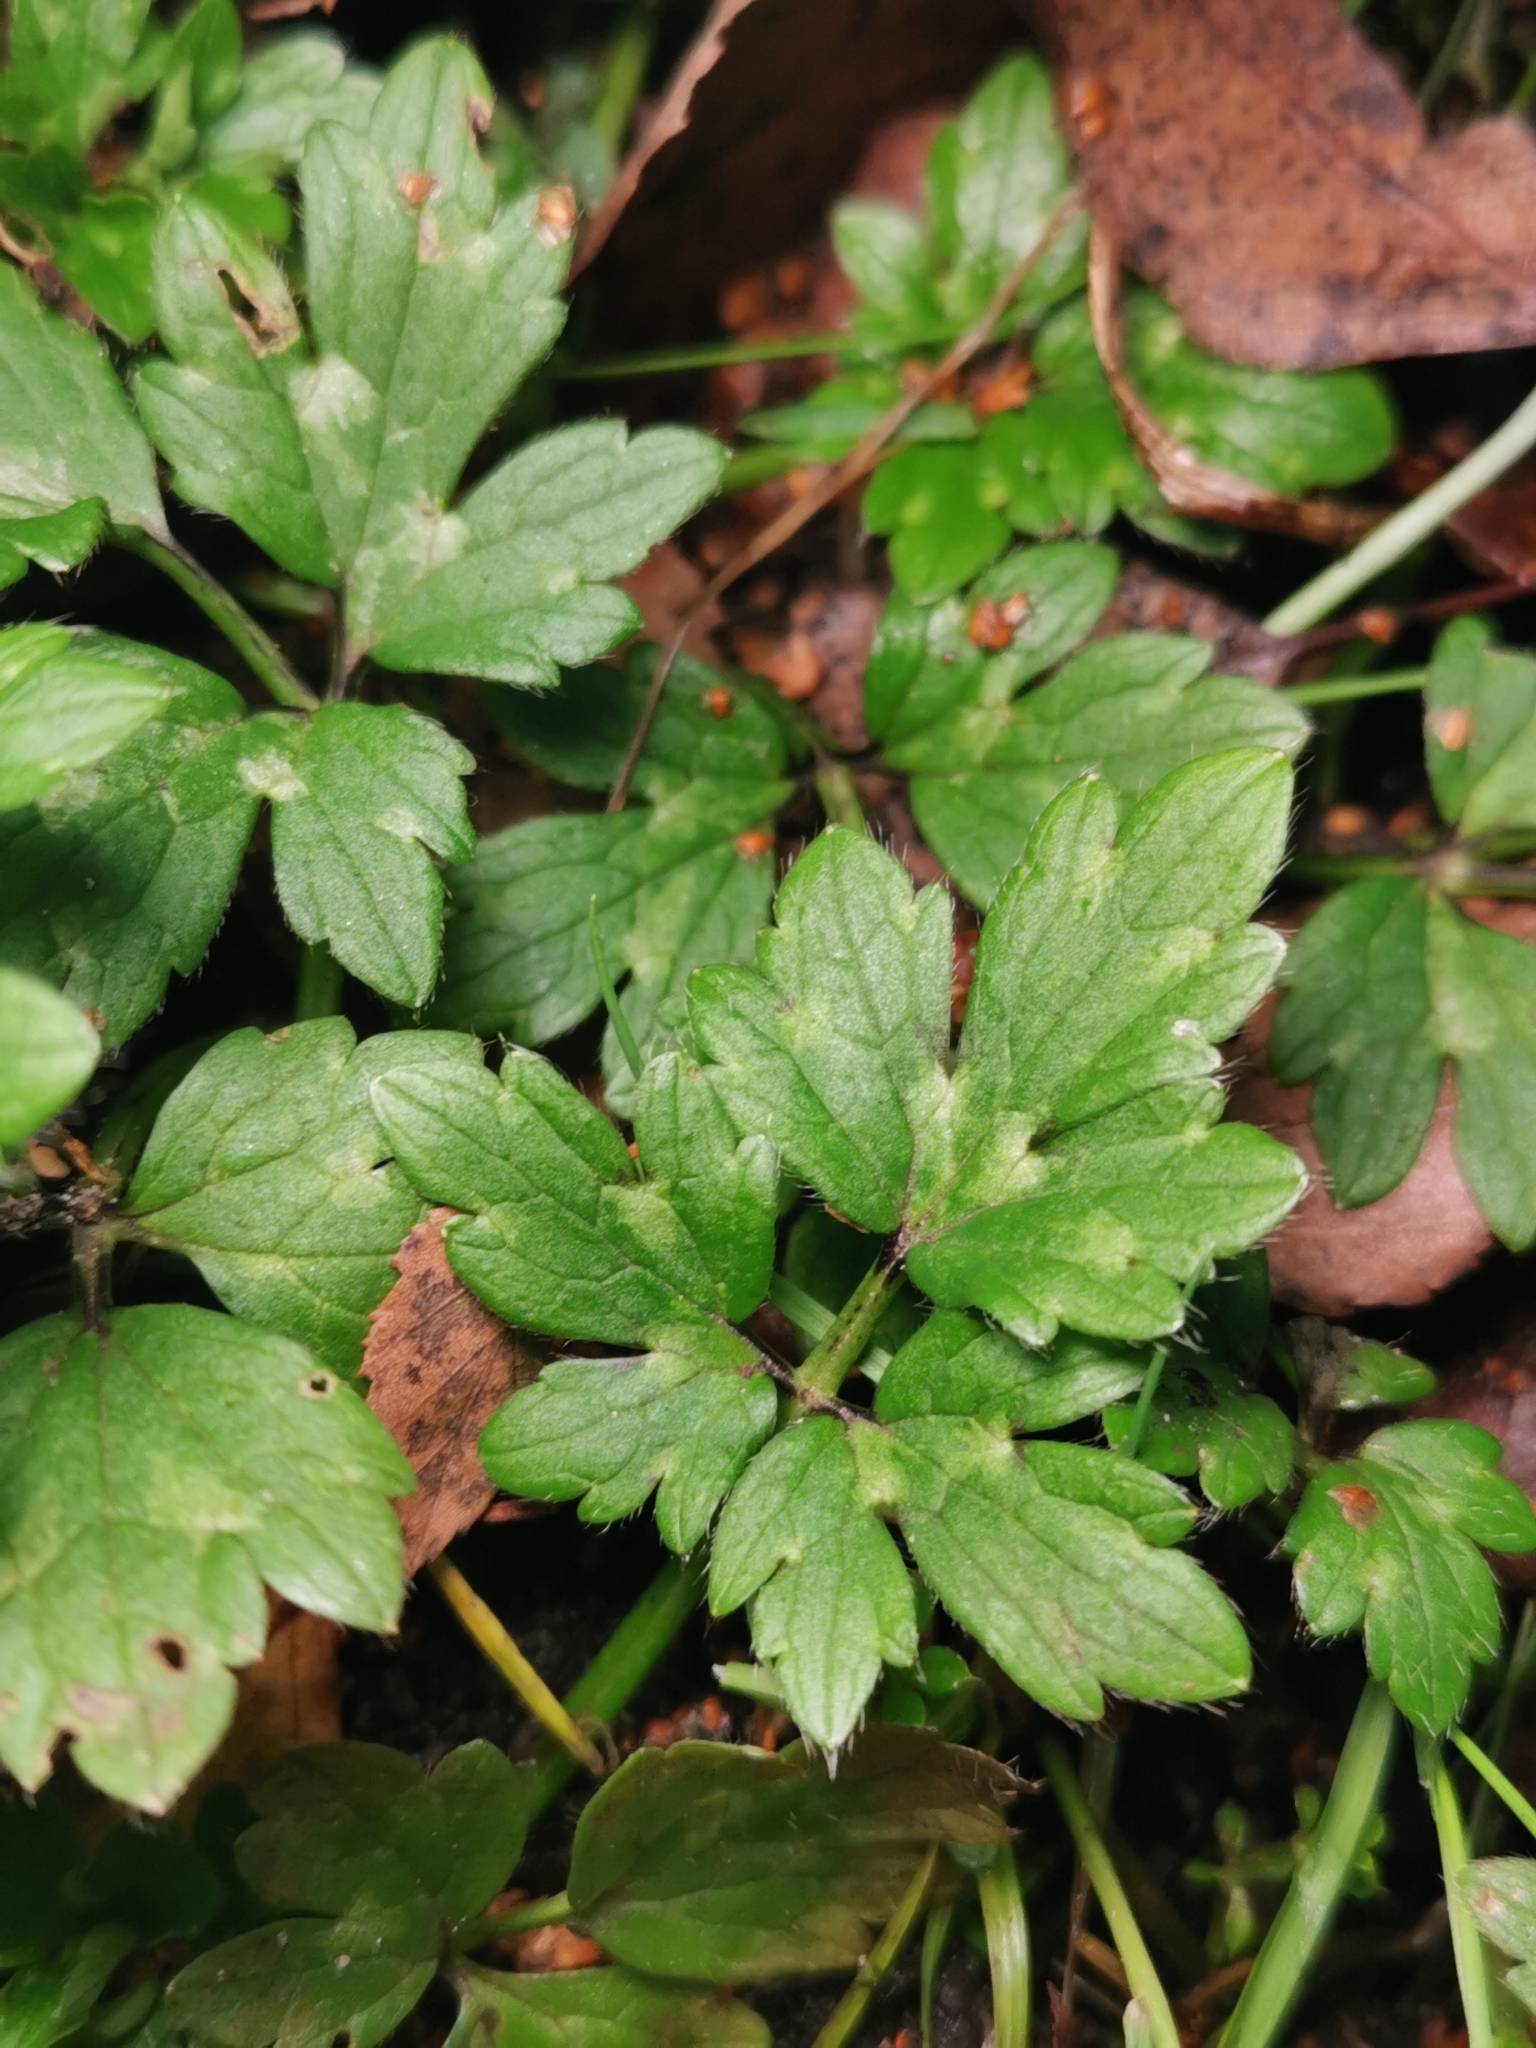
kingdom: Plantae
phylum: Tracheophyta
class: Magnoliopsida
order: Ranunculales
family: Ranunculaceae
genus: Ranunculus
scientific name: Ranunculus repens
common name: Creeping buttercup
